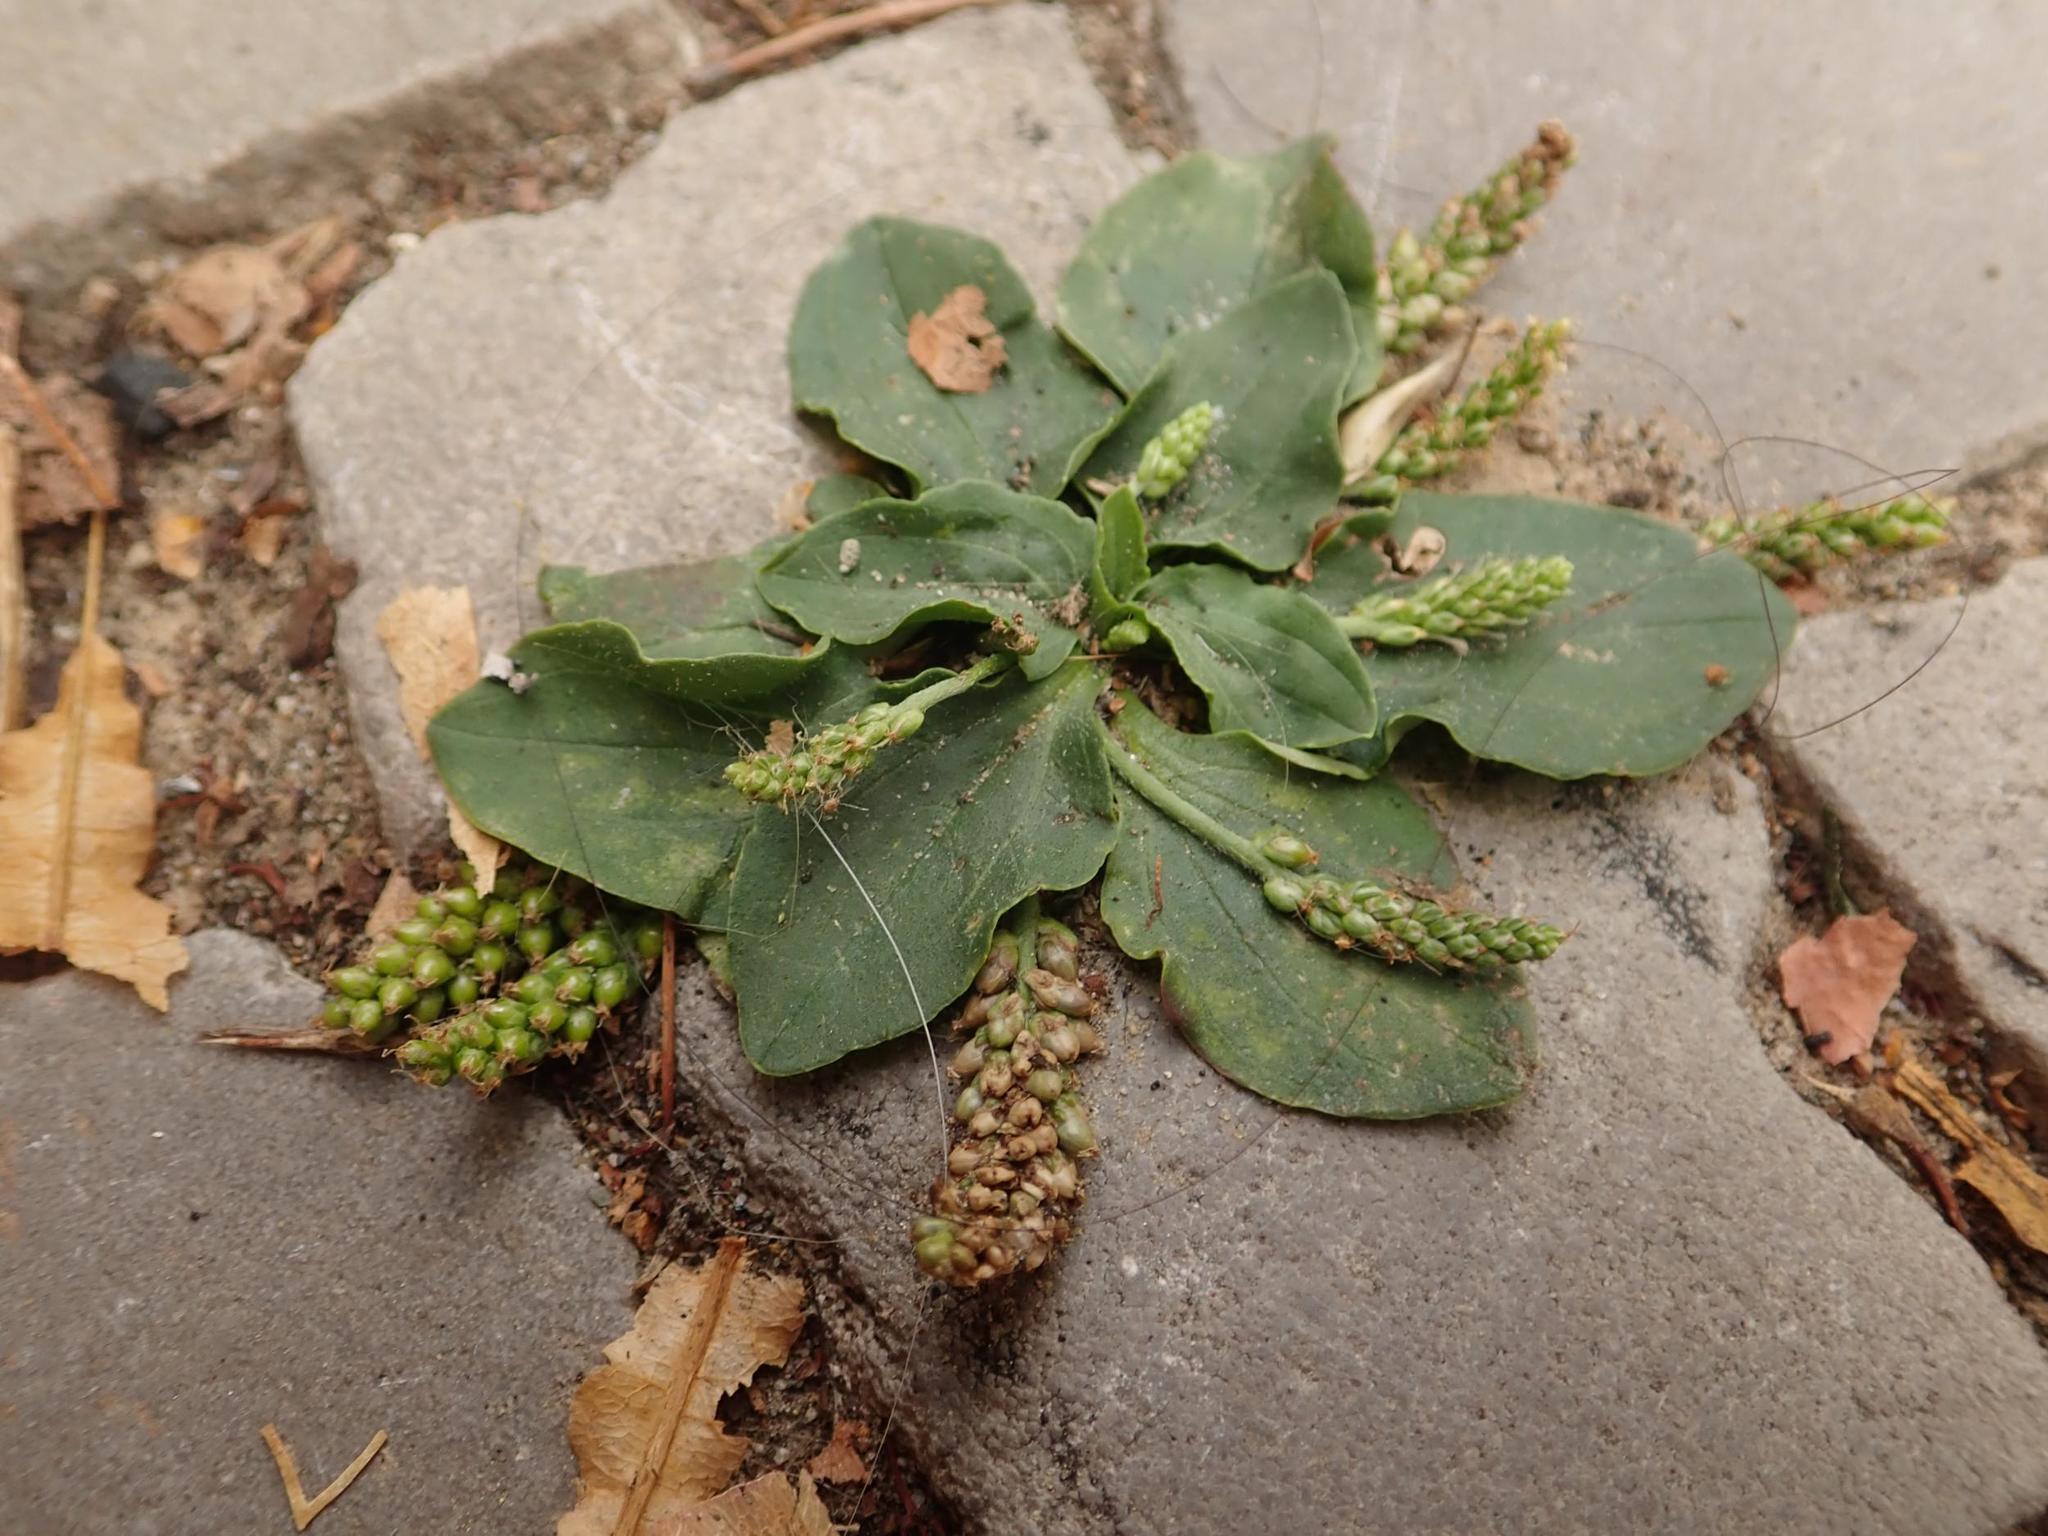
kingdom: Plantae
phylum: Tracheophyta
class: Magnoliopsida
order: Lamiales
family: Plantaginaceae
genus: Plantago
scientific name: Plantago major
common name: Common plantain
